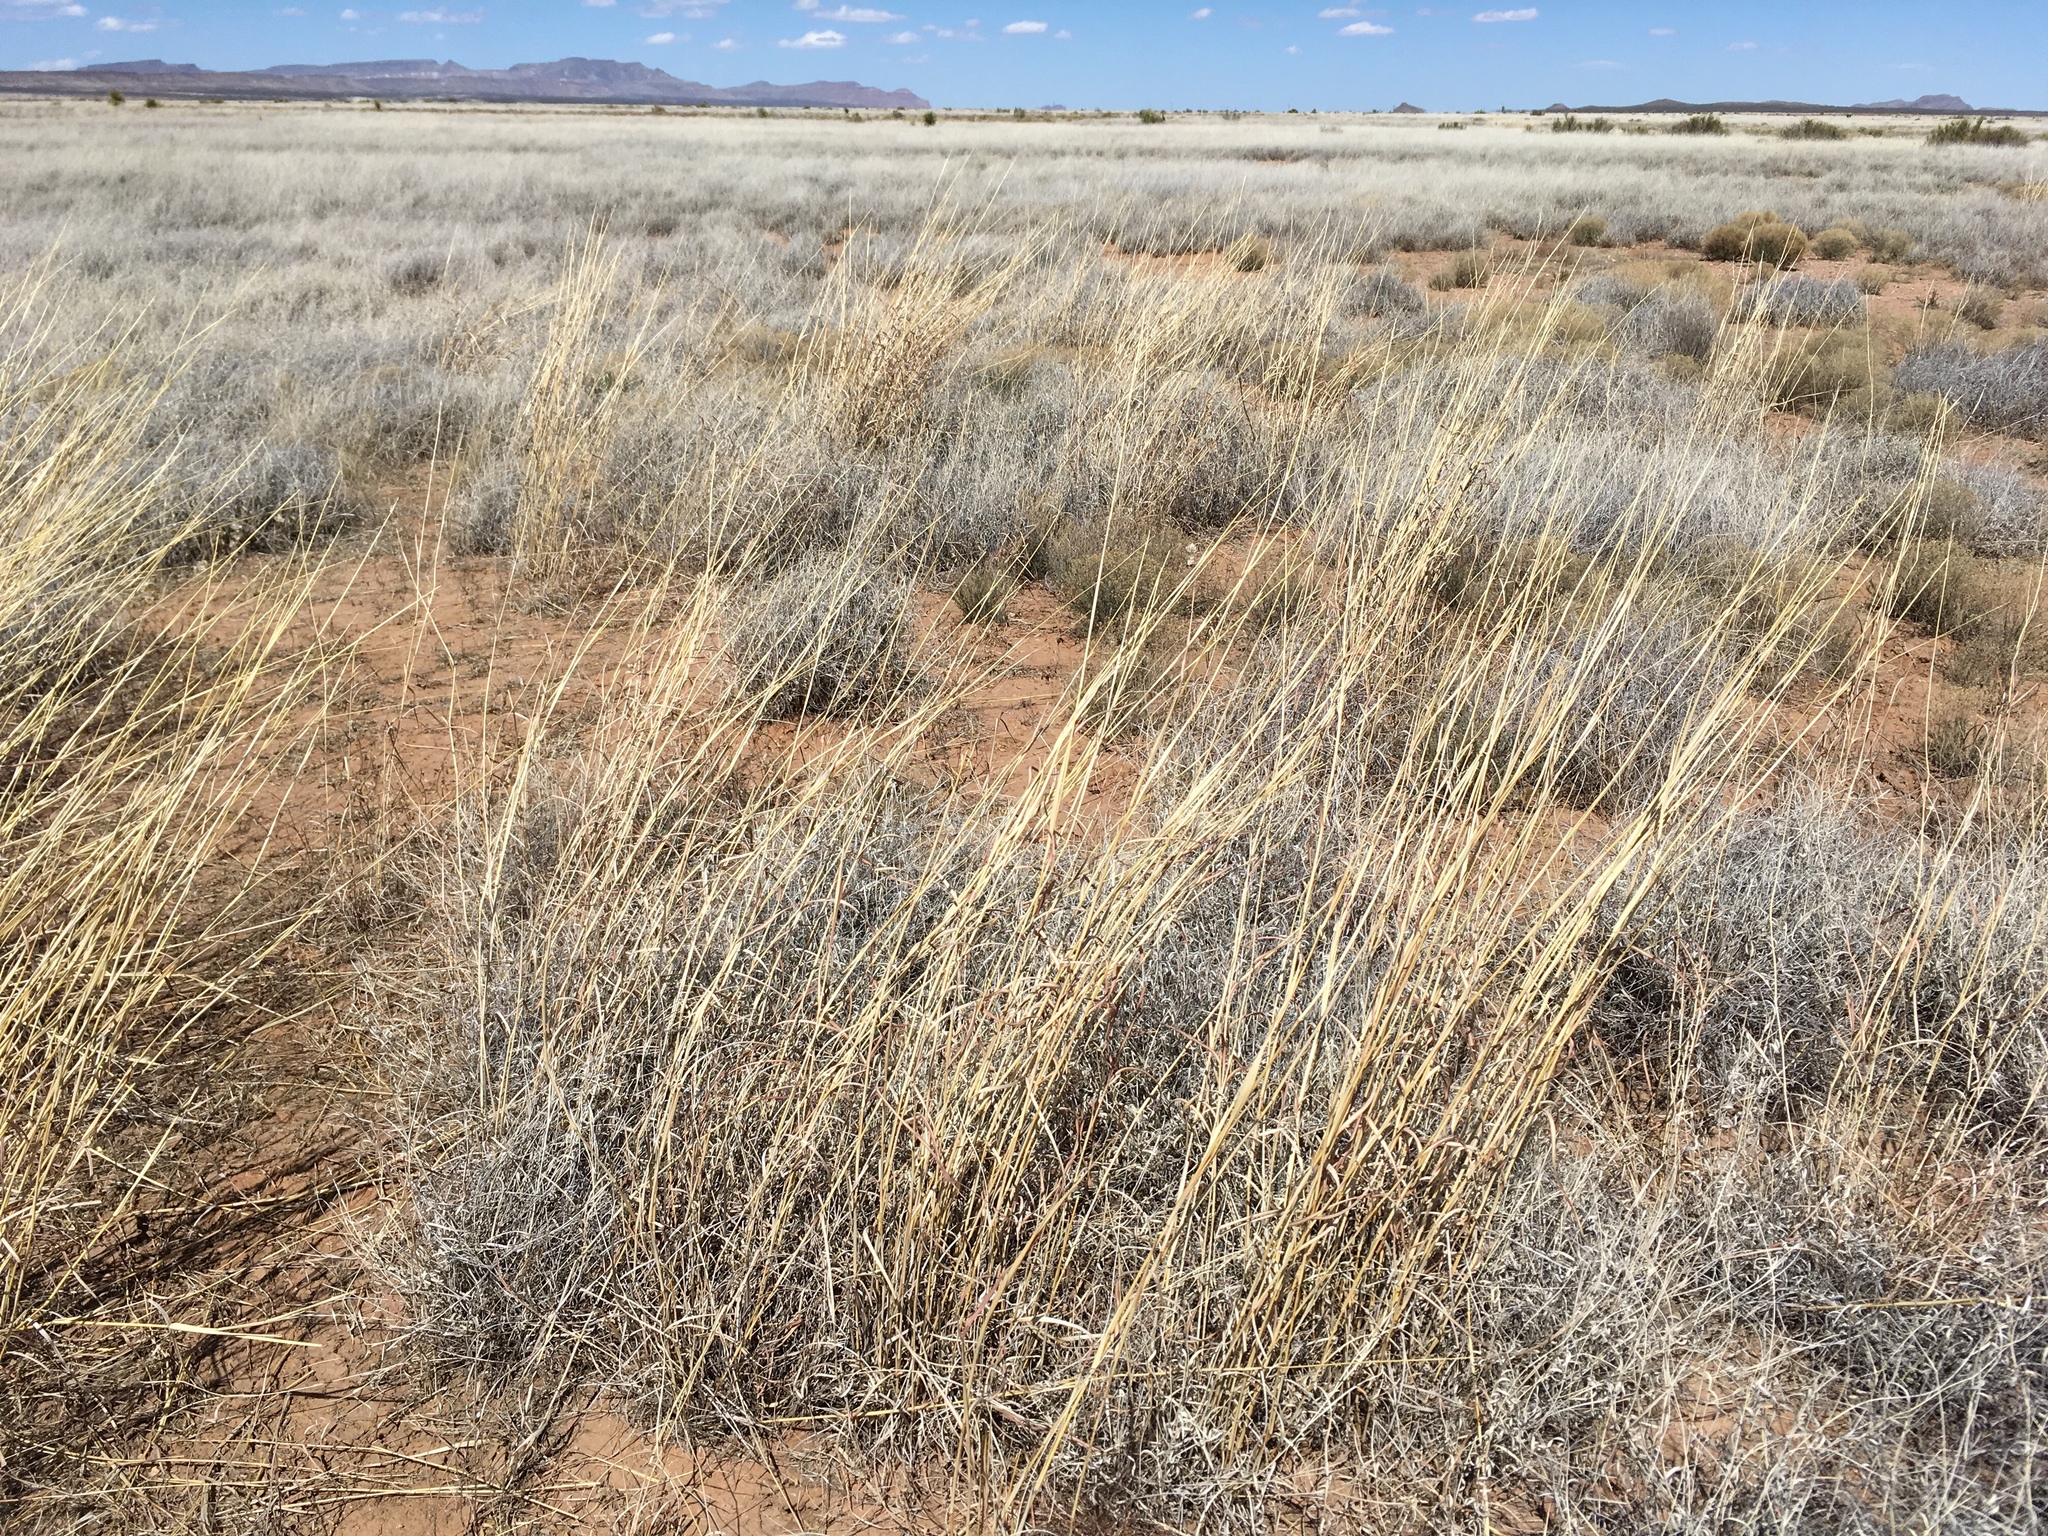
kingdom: Plantae
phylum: Tracheophyta
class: Liliopsida
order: Poales
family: Poaceae
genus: Bothriochloa
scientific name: Bothriochloa barbinodis
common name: Cane bluestem
